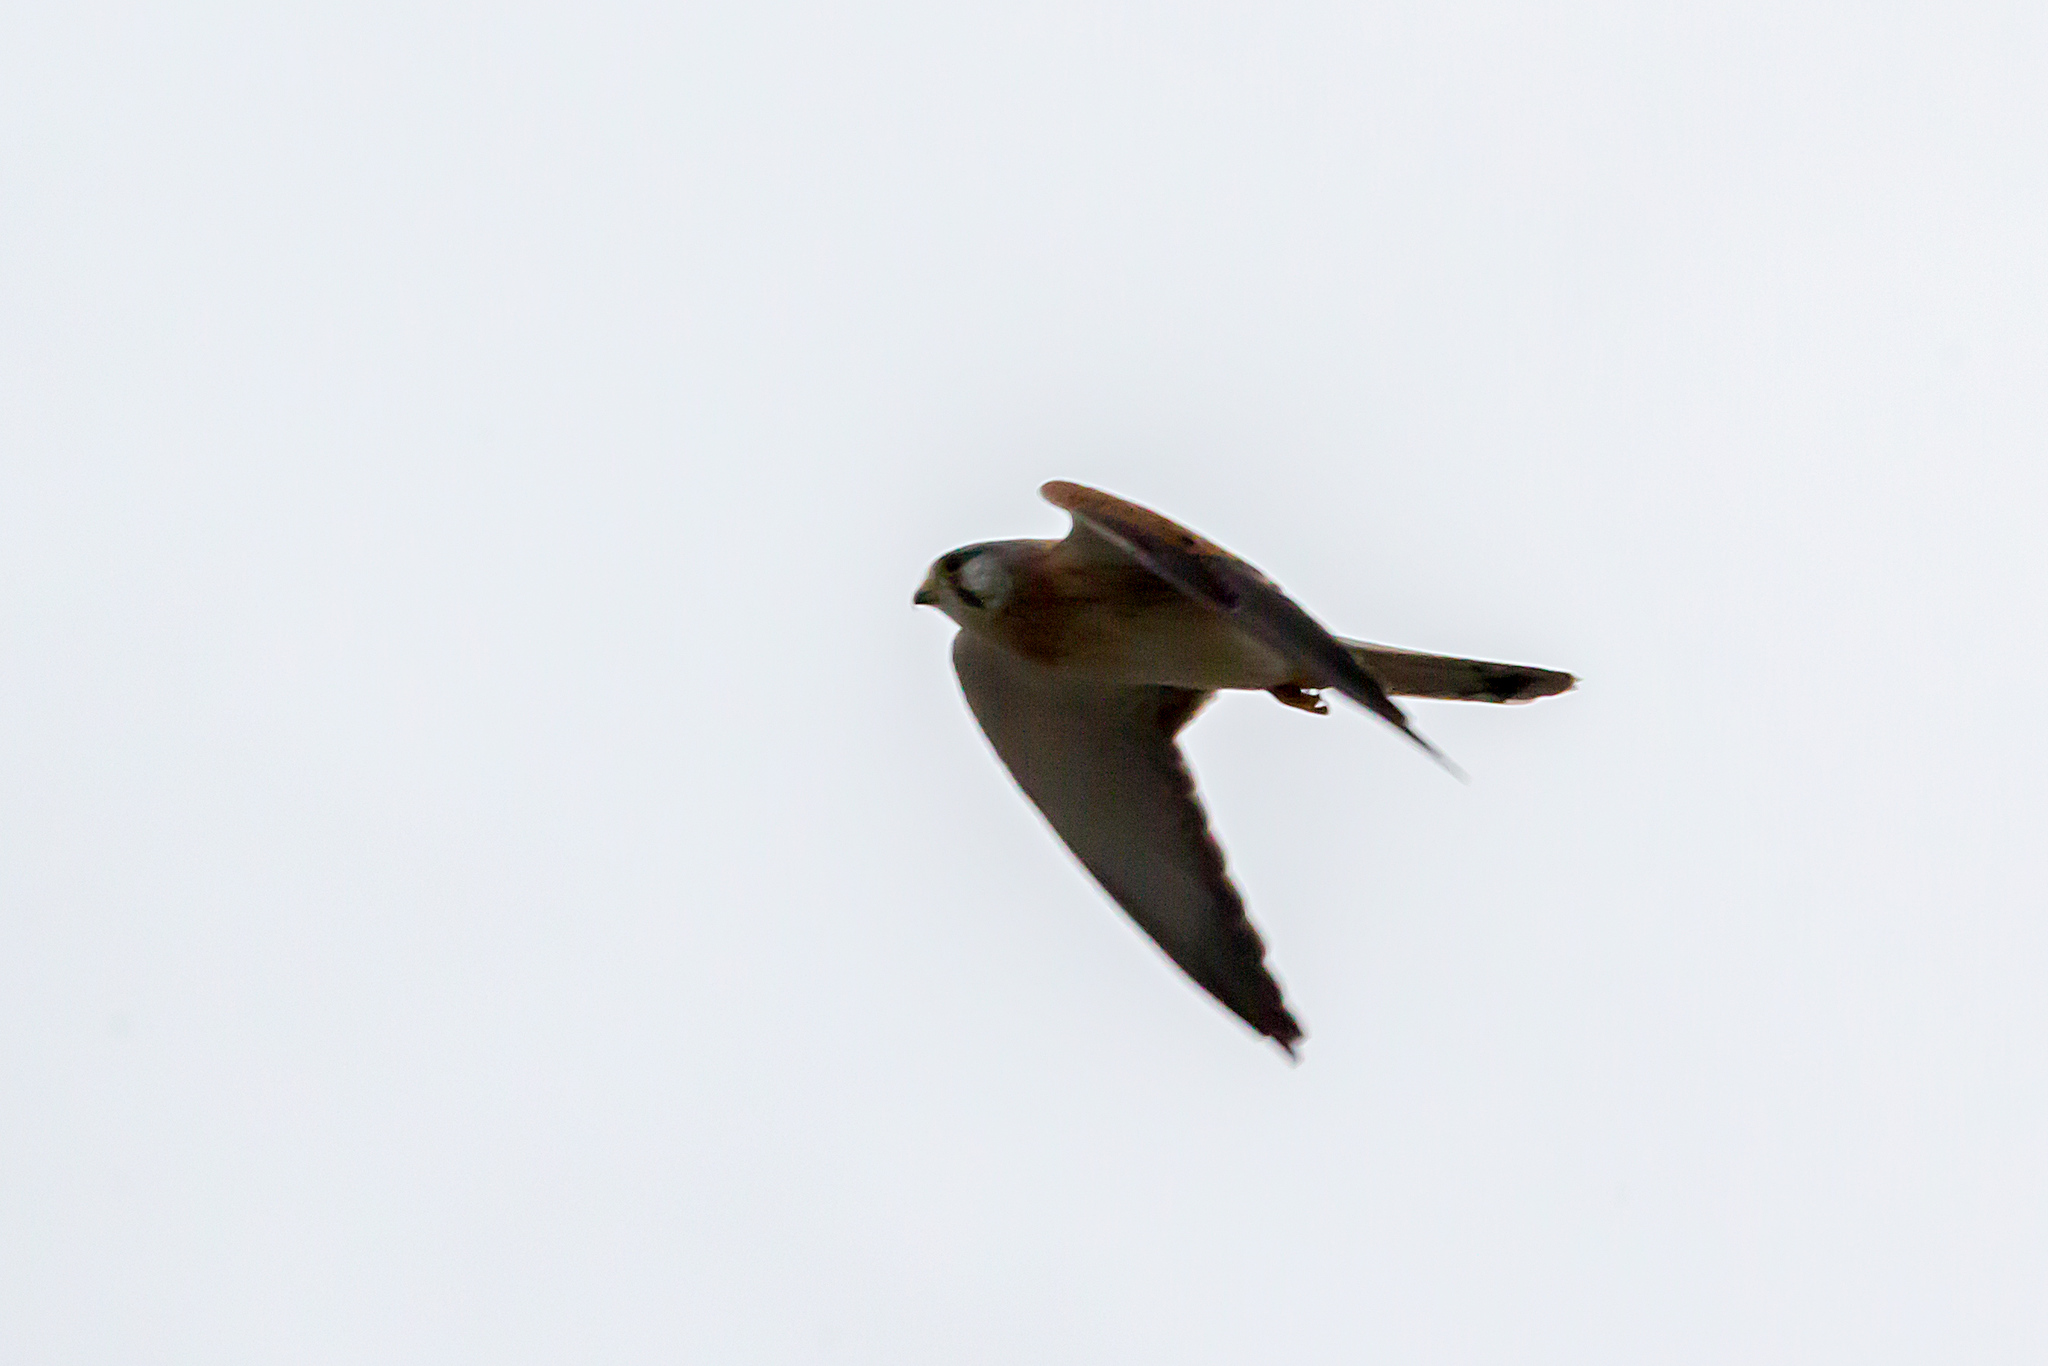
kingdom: Animalia
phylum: Chordata
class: Aves
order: Falconiformes
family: Falconidae
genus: Falco
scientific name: Falco cenchroides
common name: Nankeen kestrel
